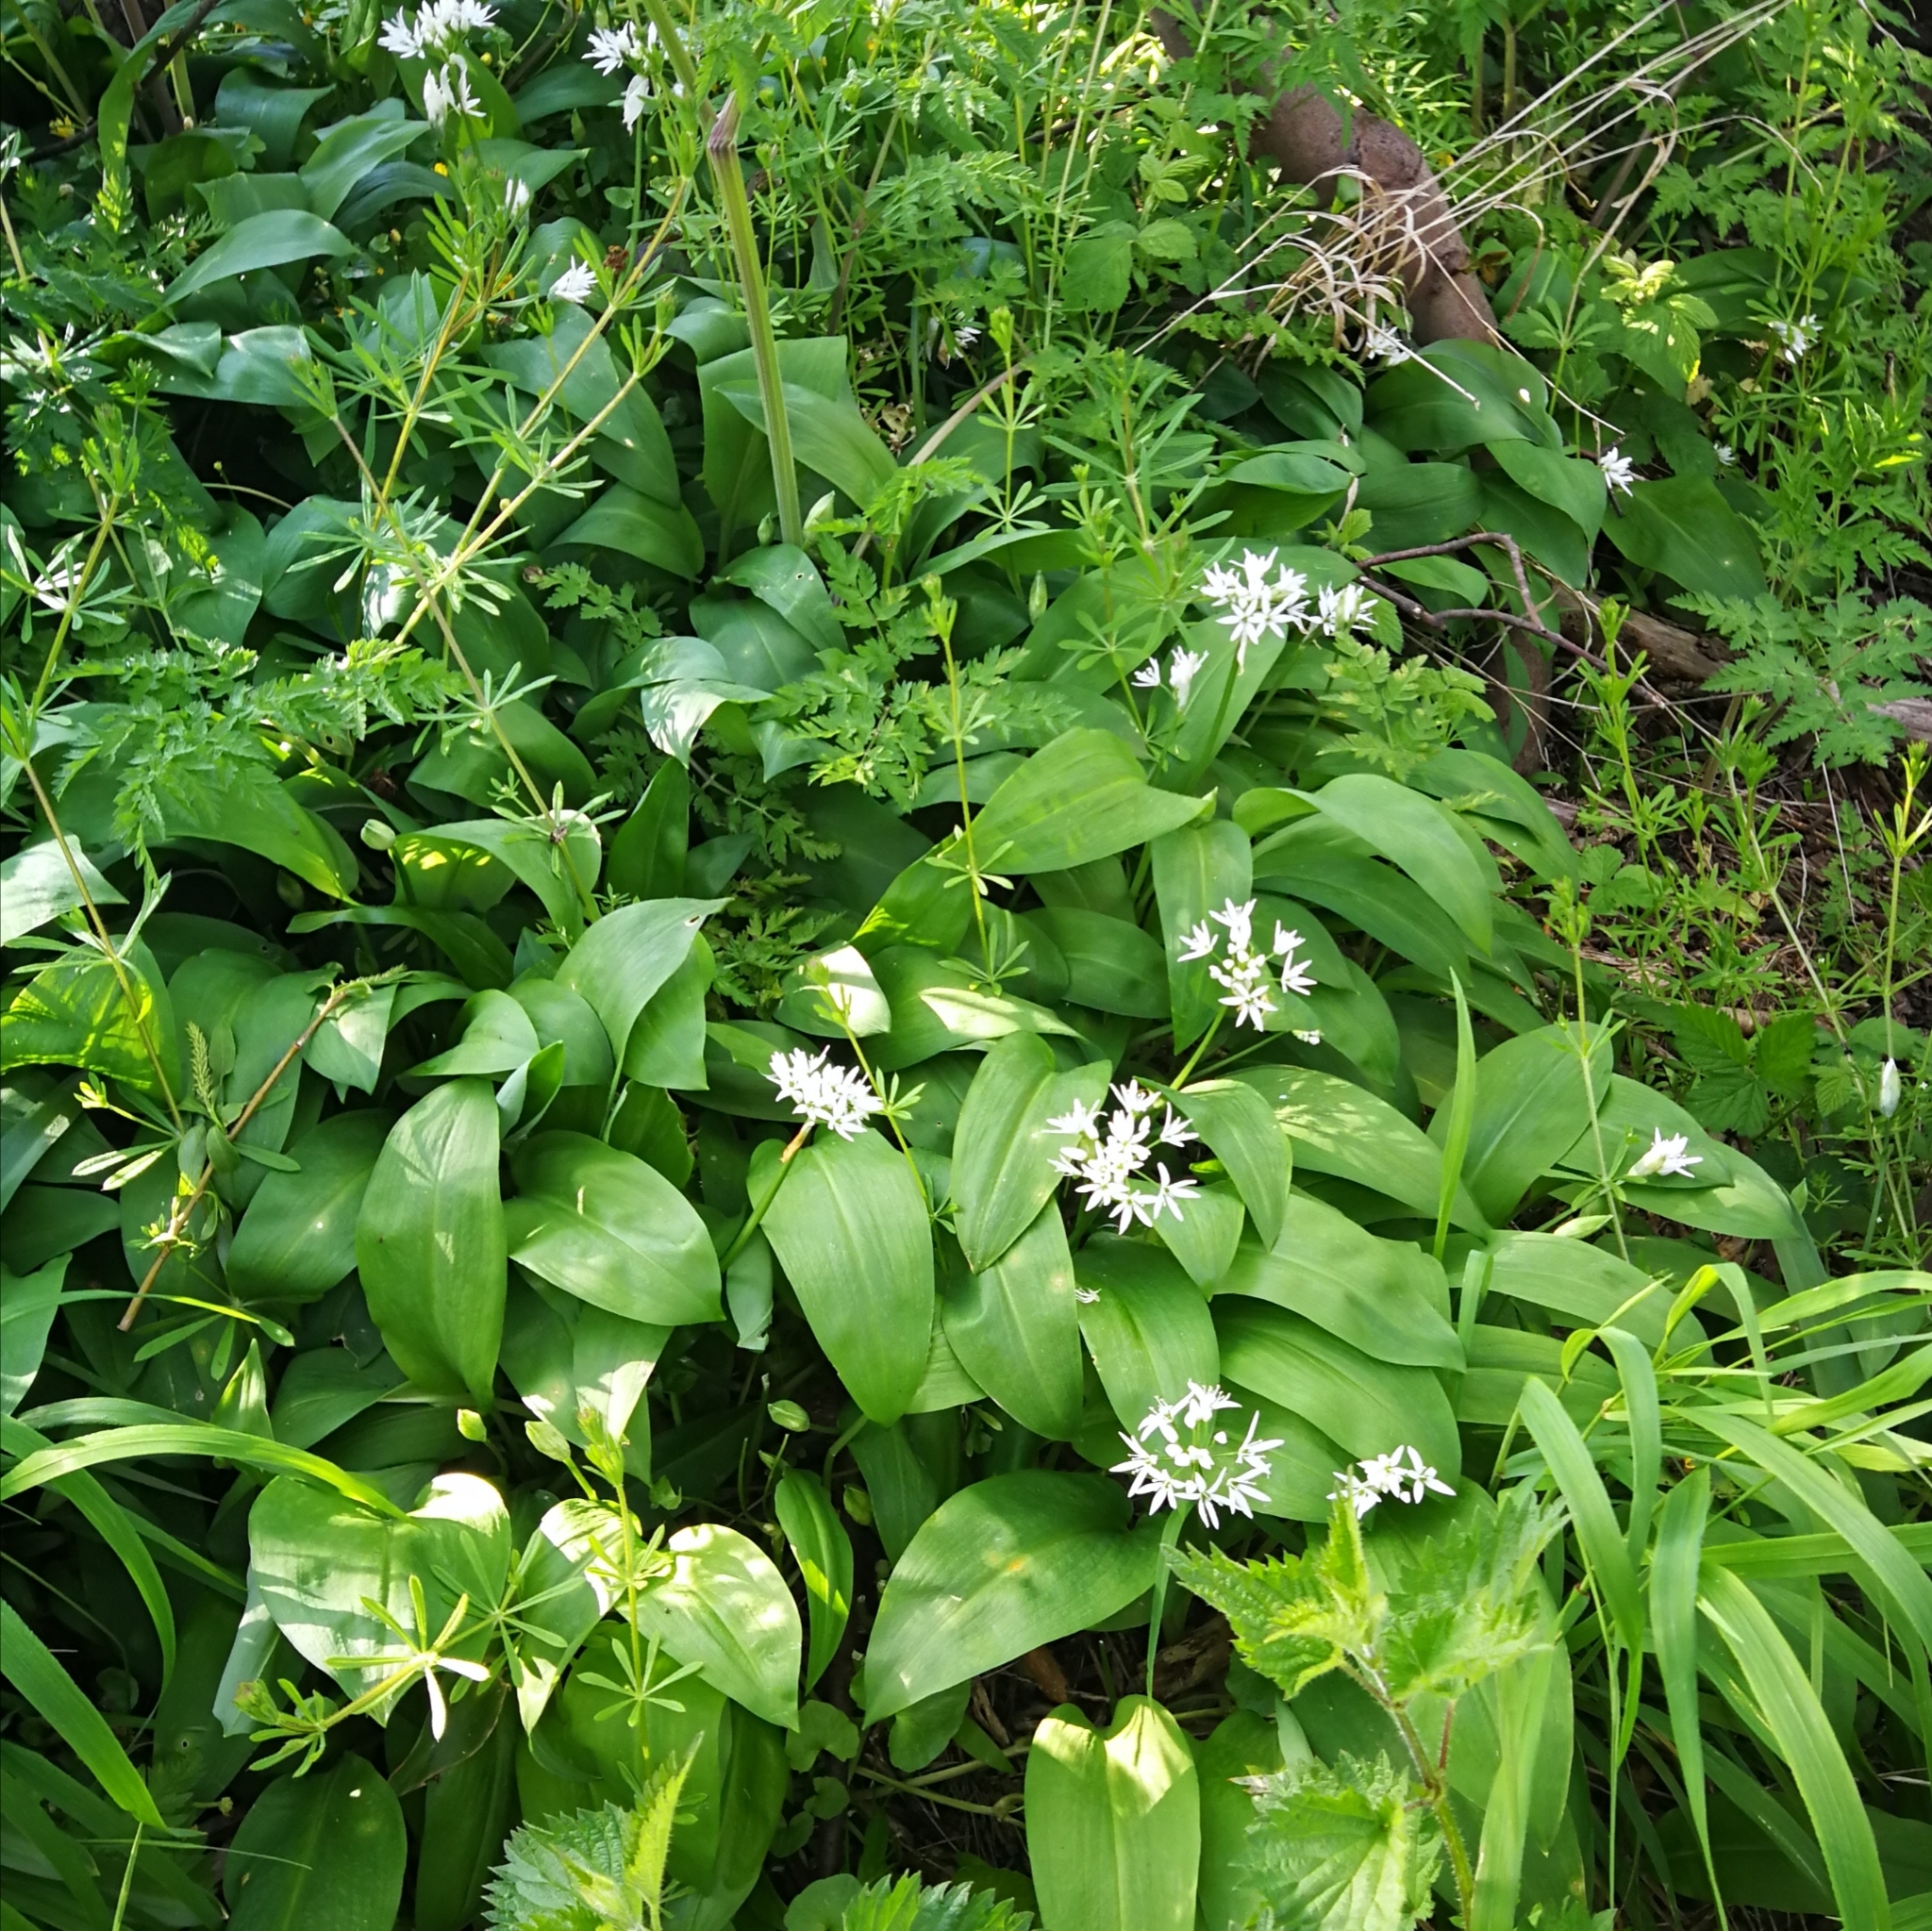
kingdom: Plantae
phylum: Tracheophyta
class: Liliopsida
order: Asparagales
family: Amaryllidaceae
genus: Allium
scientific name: Allium ursinum
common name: Ramsons
